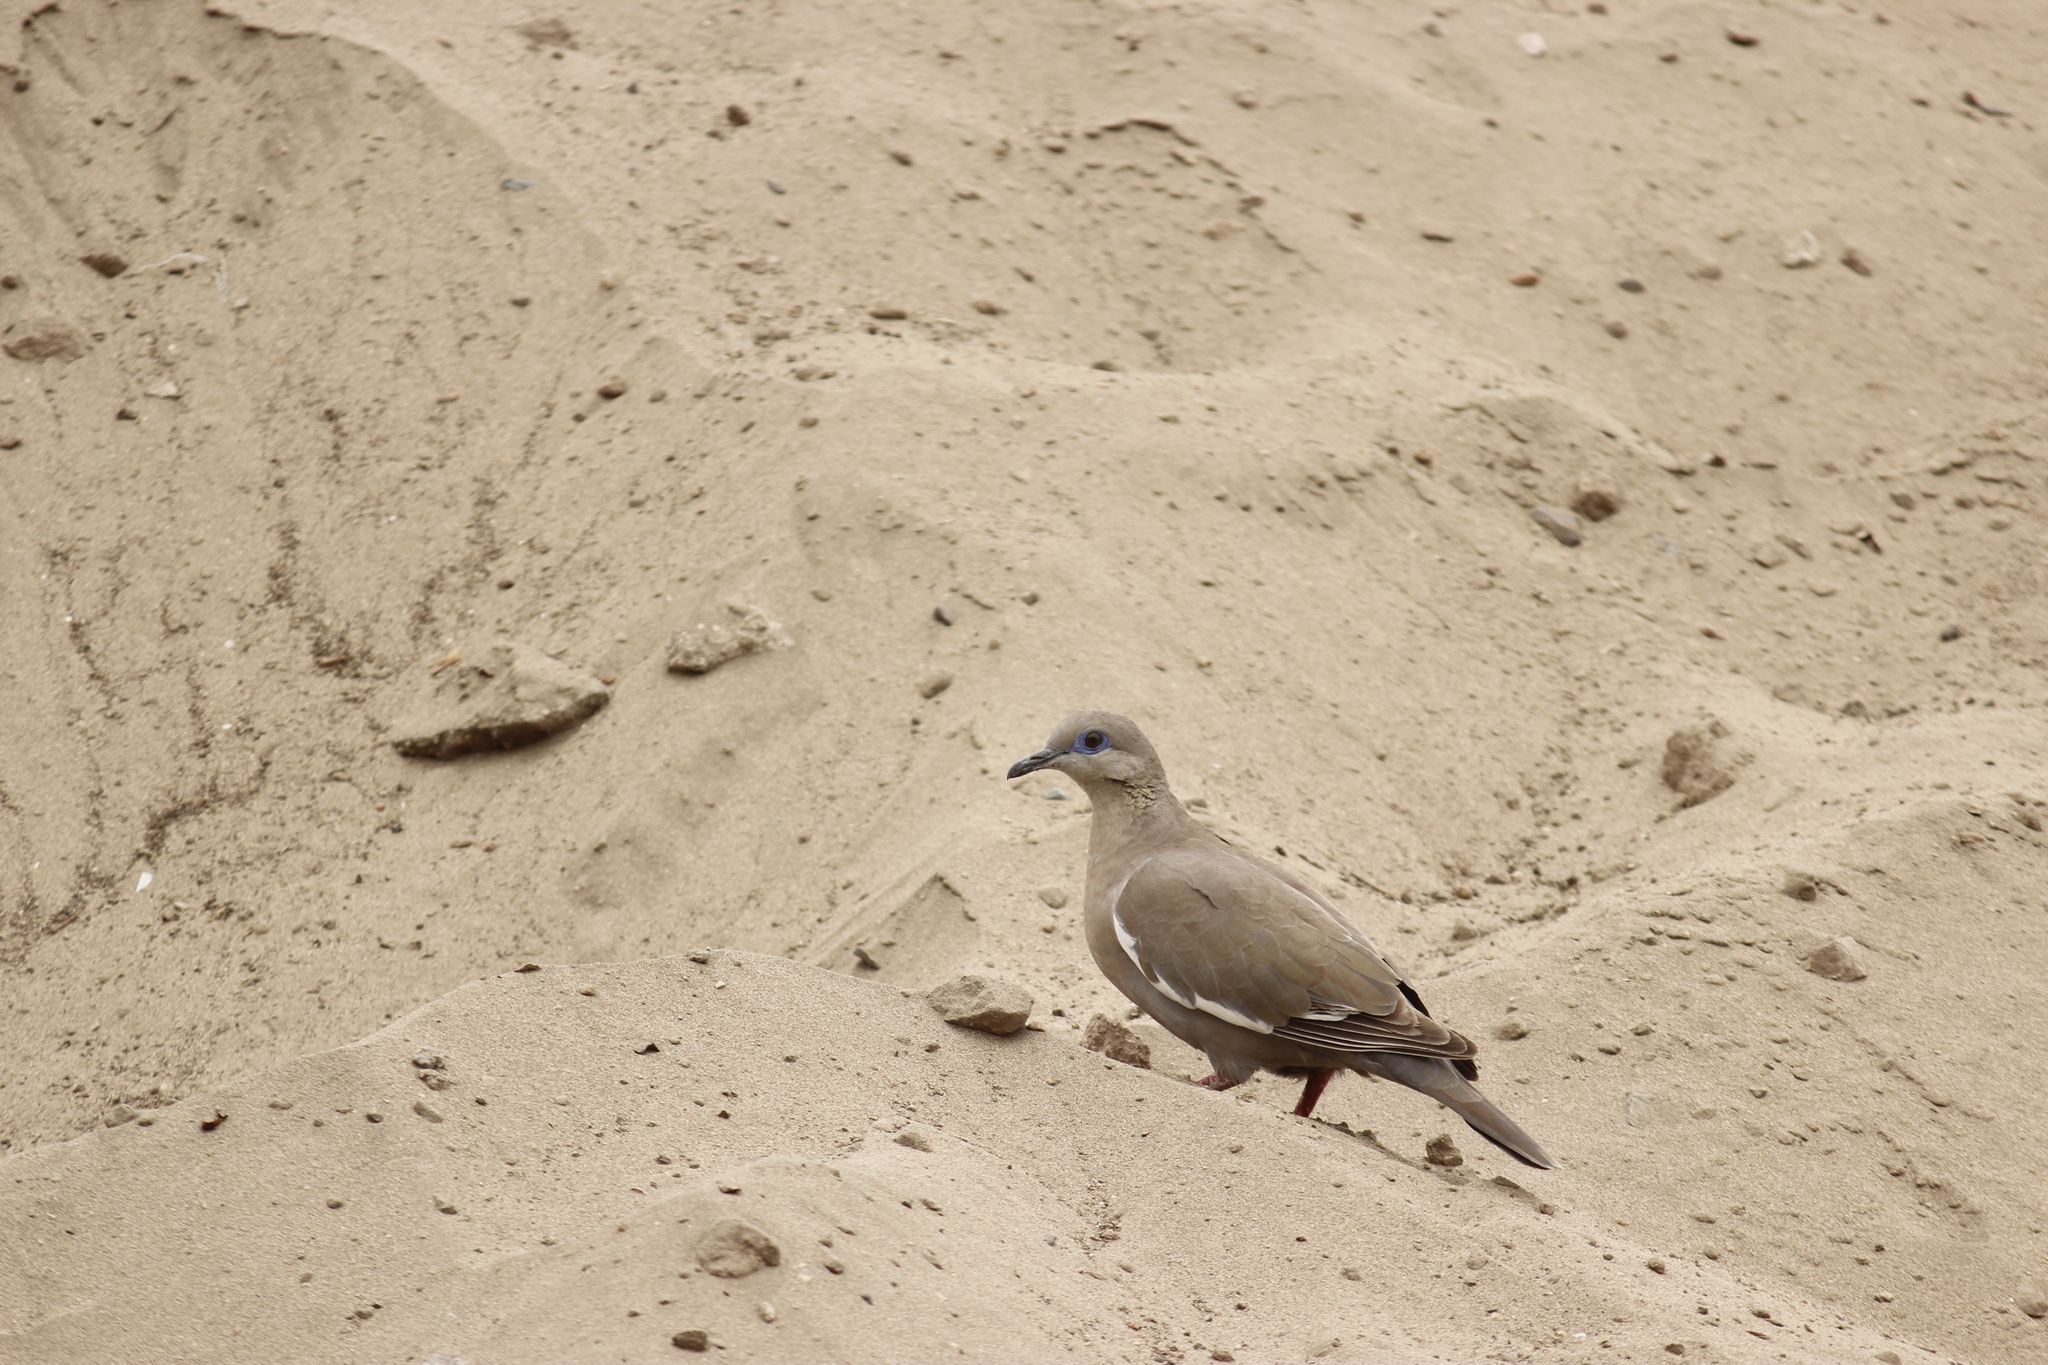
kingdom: Animalia
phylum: Chordata
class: Aves
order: Columbiformes
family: Columbidae
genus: Zenaida
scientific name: Zenaida meloda
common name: West peruvian dove
